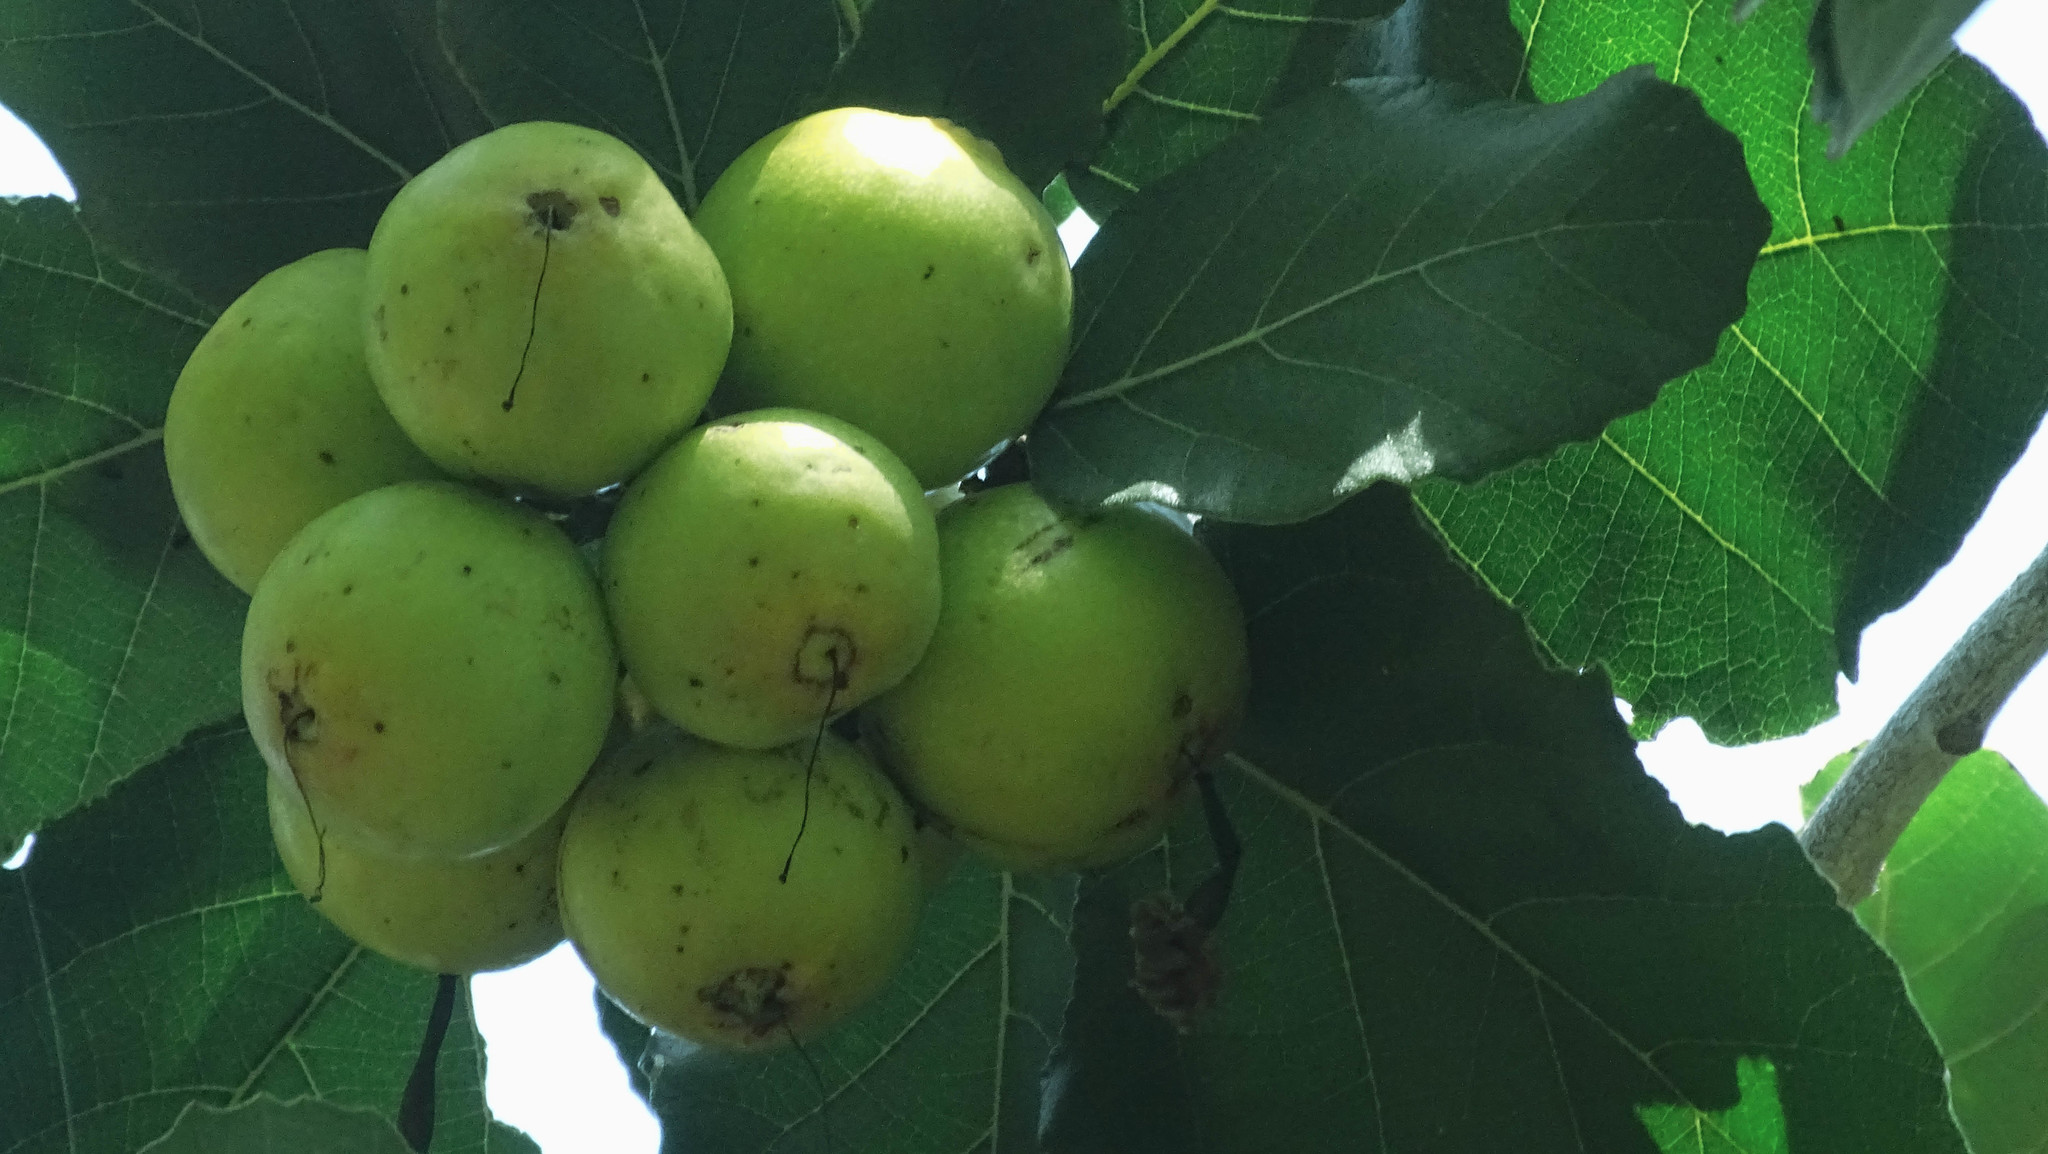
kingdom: Plantae
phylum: Tracheophyta
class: Magnoliopsida
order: Boraginales
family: Cordiaceae
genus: Cordia
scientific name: Cordia dodecandra
